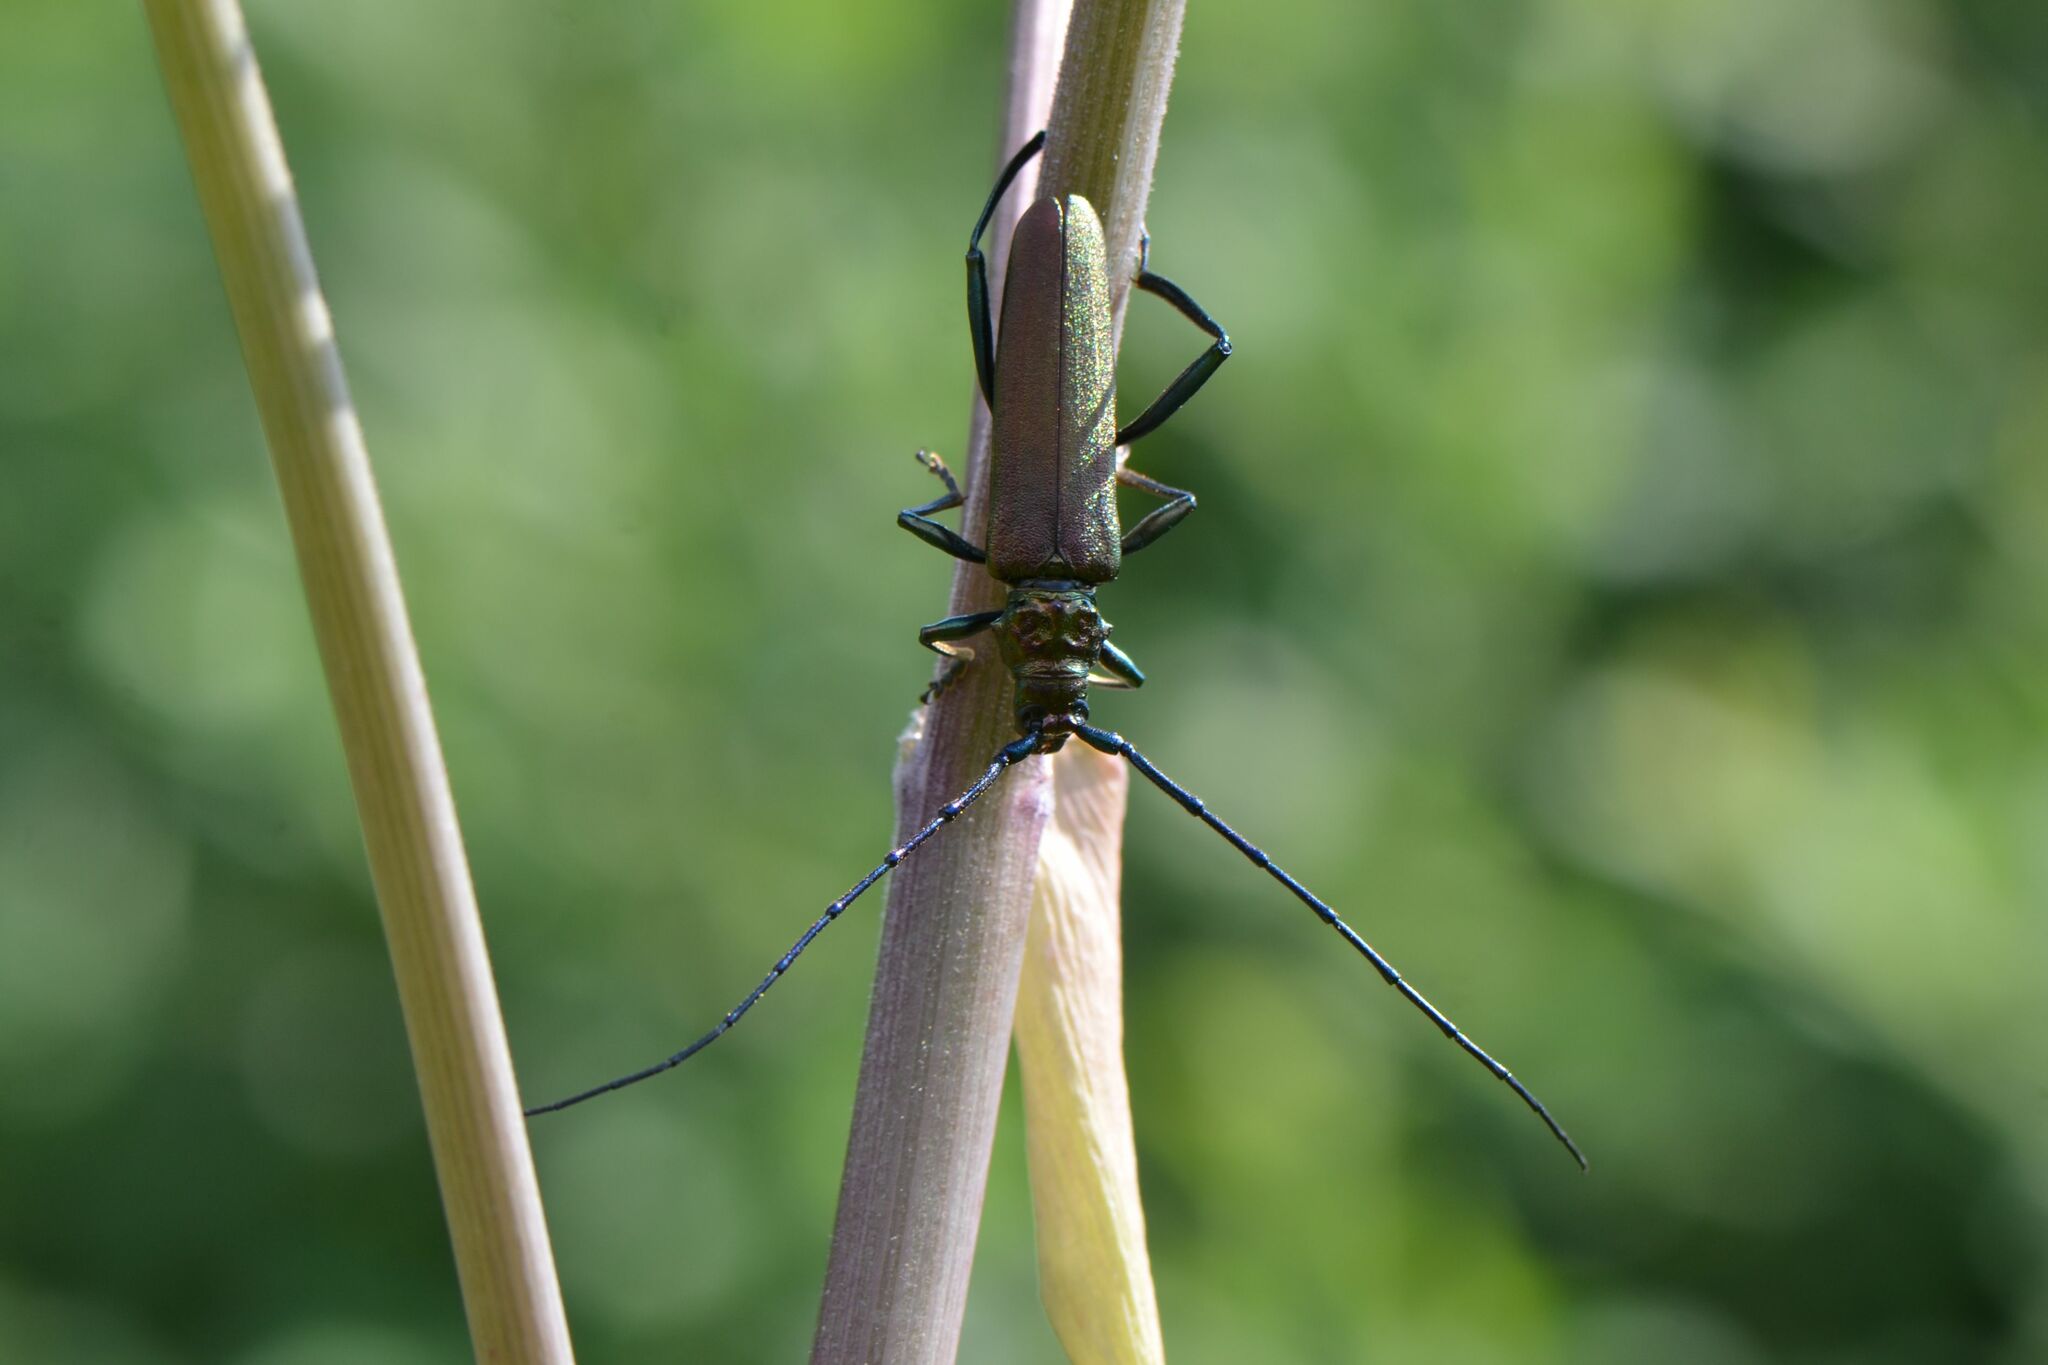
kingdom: Animalia
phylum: Arthropoda
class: Insecta
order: Coleoptera
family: Cerambycidae
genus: Aromia
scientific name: Aromia moschata
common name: Musk beetle
